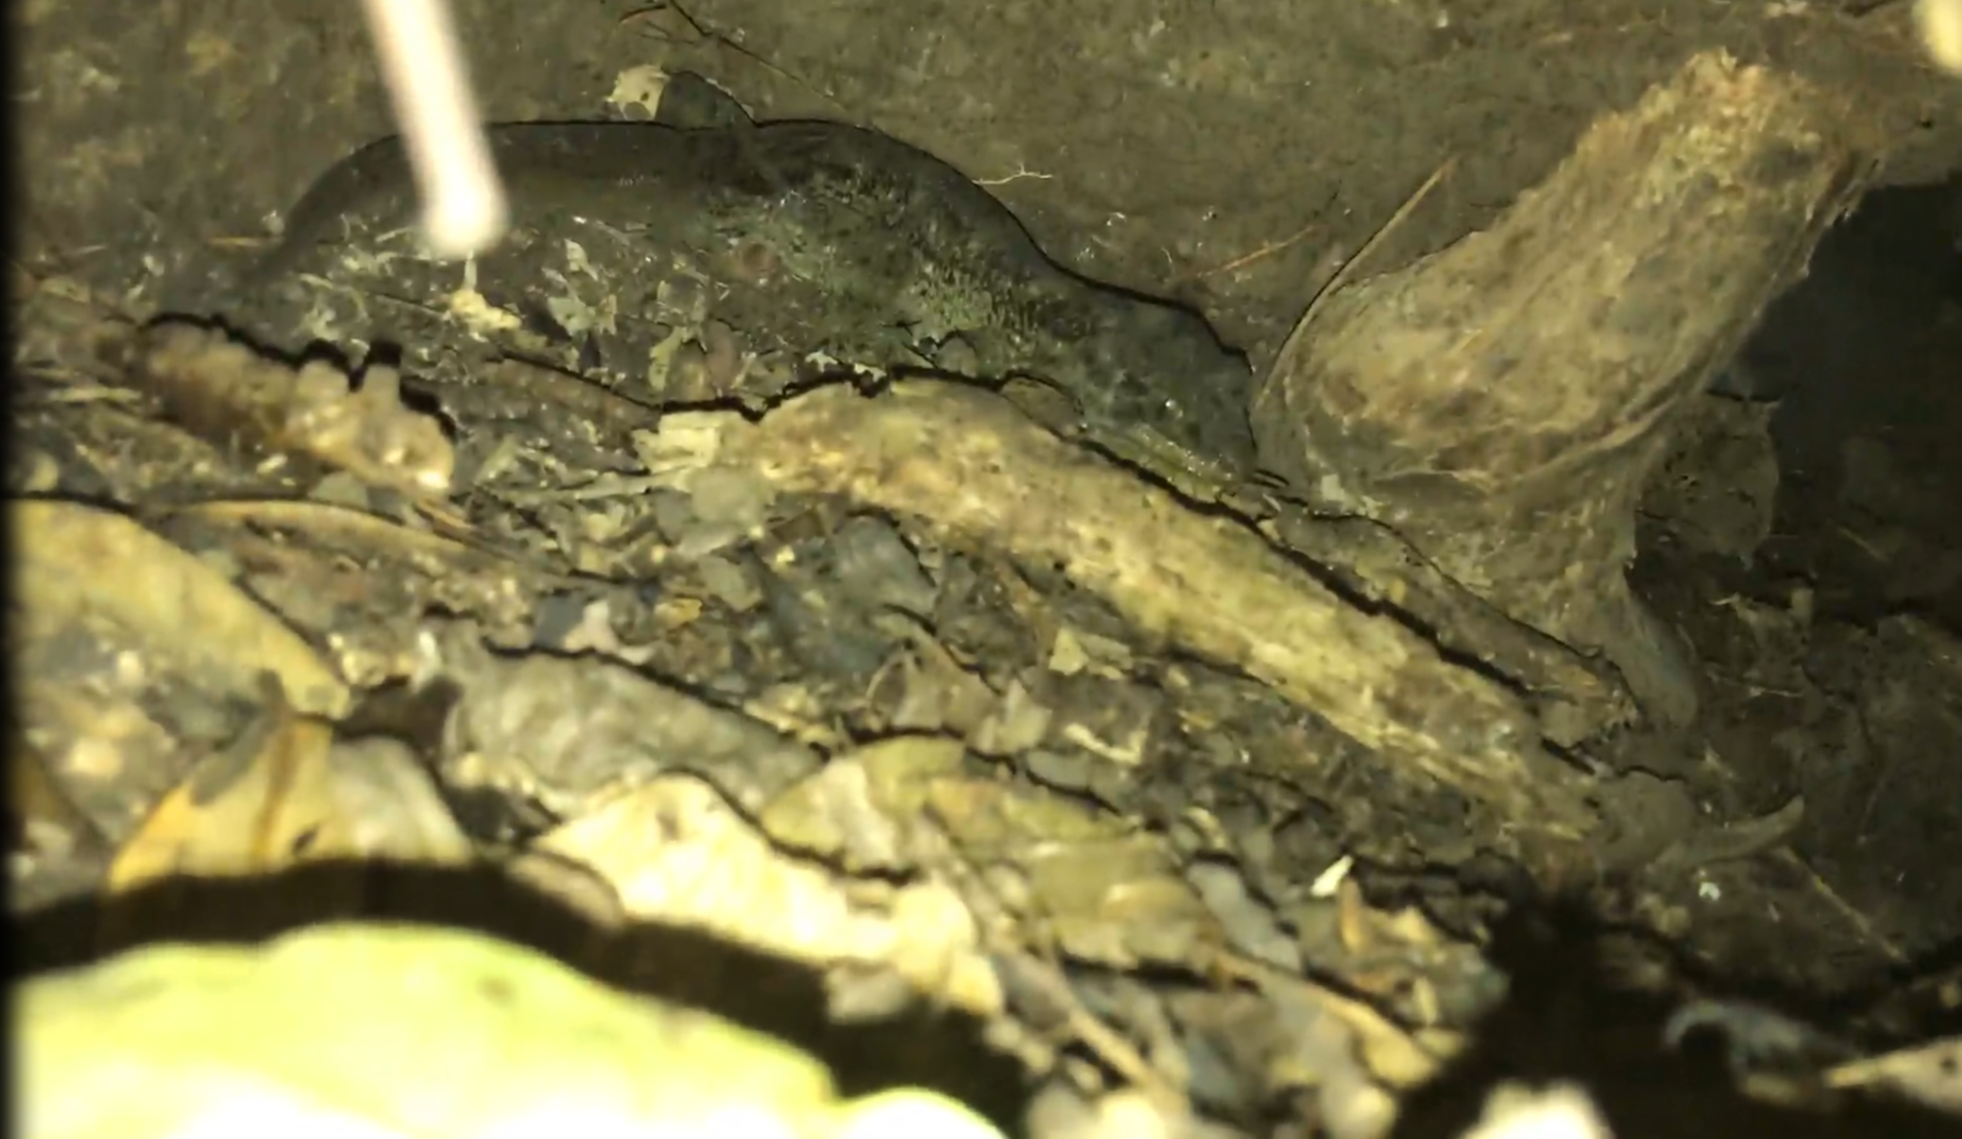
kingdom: Animalia
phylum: Chordata
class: Squamata
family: Diplodactylidae
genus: Hoplodactylus
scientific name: Hoplodactylus duvaucelii
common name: Duvaucel's gecko
